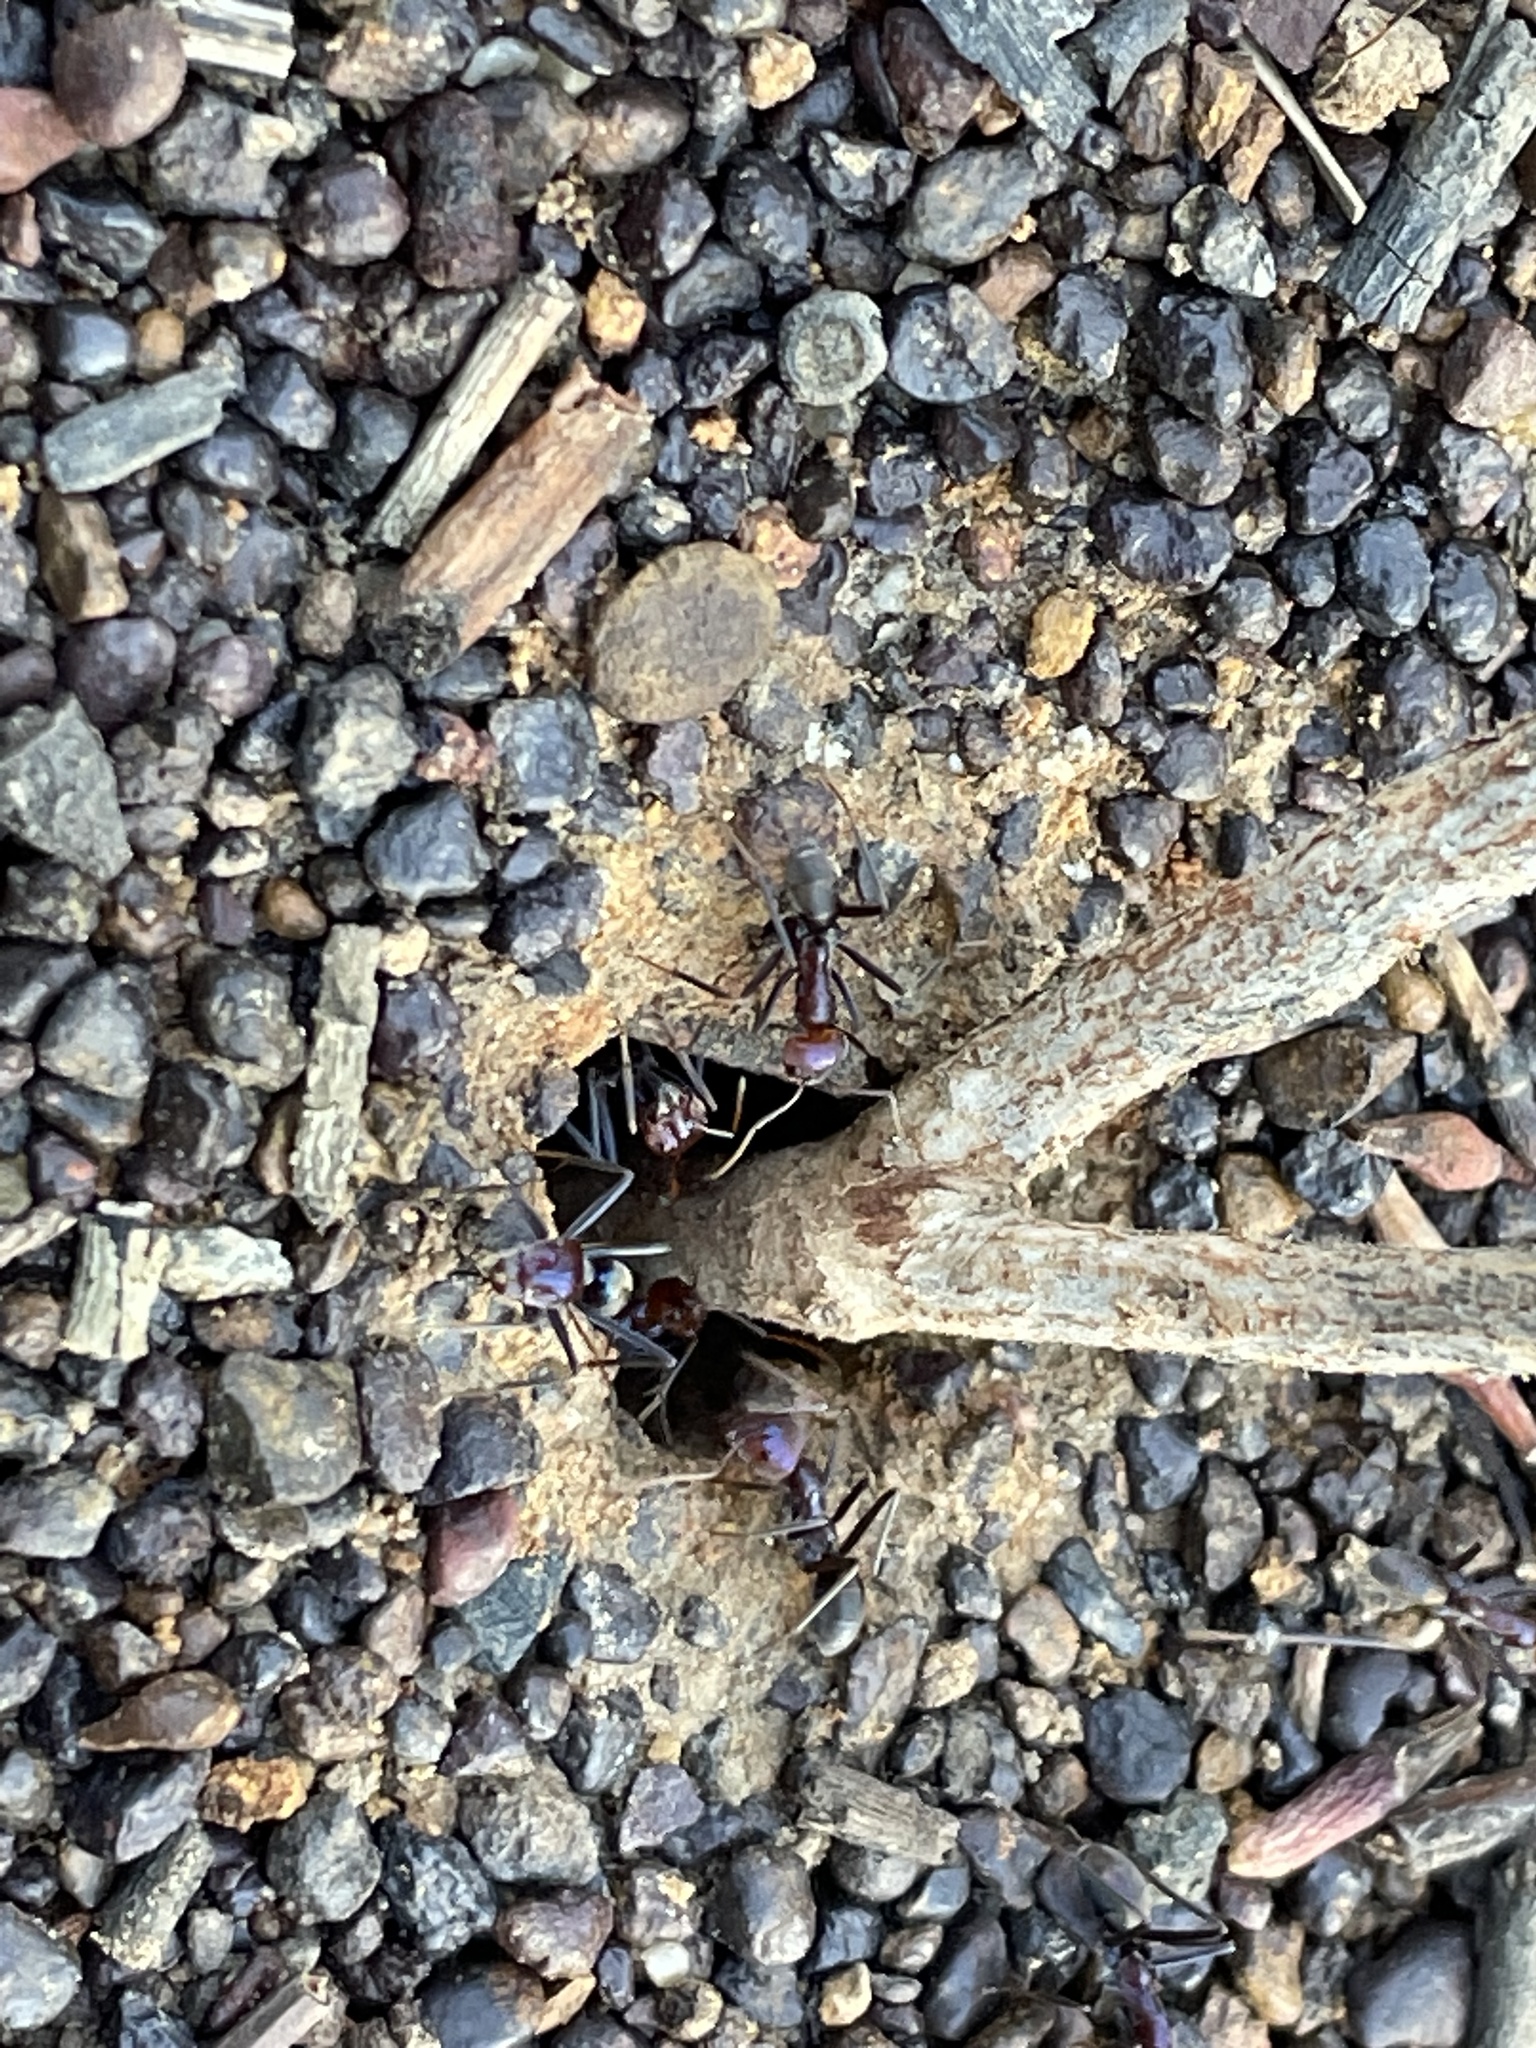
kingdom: Animalia
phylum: Arthropoda
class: Insecta
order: Hymenoptera
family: Formicidae
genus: Iridomyrmex
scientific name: Iridomyrmex purpureus
